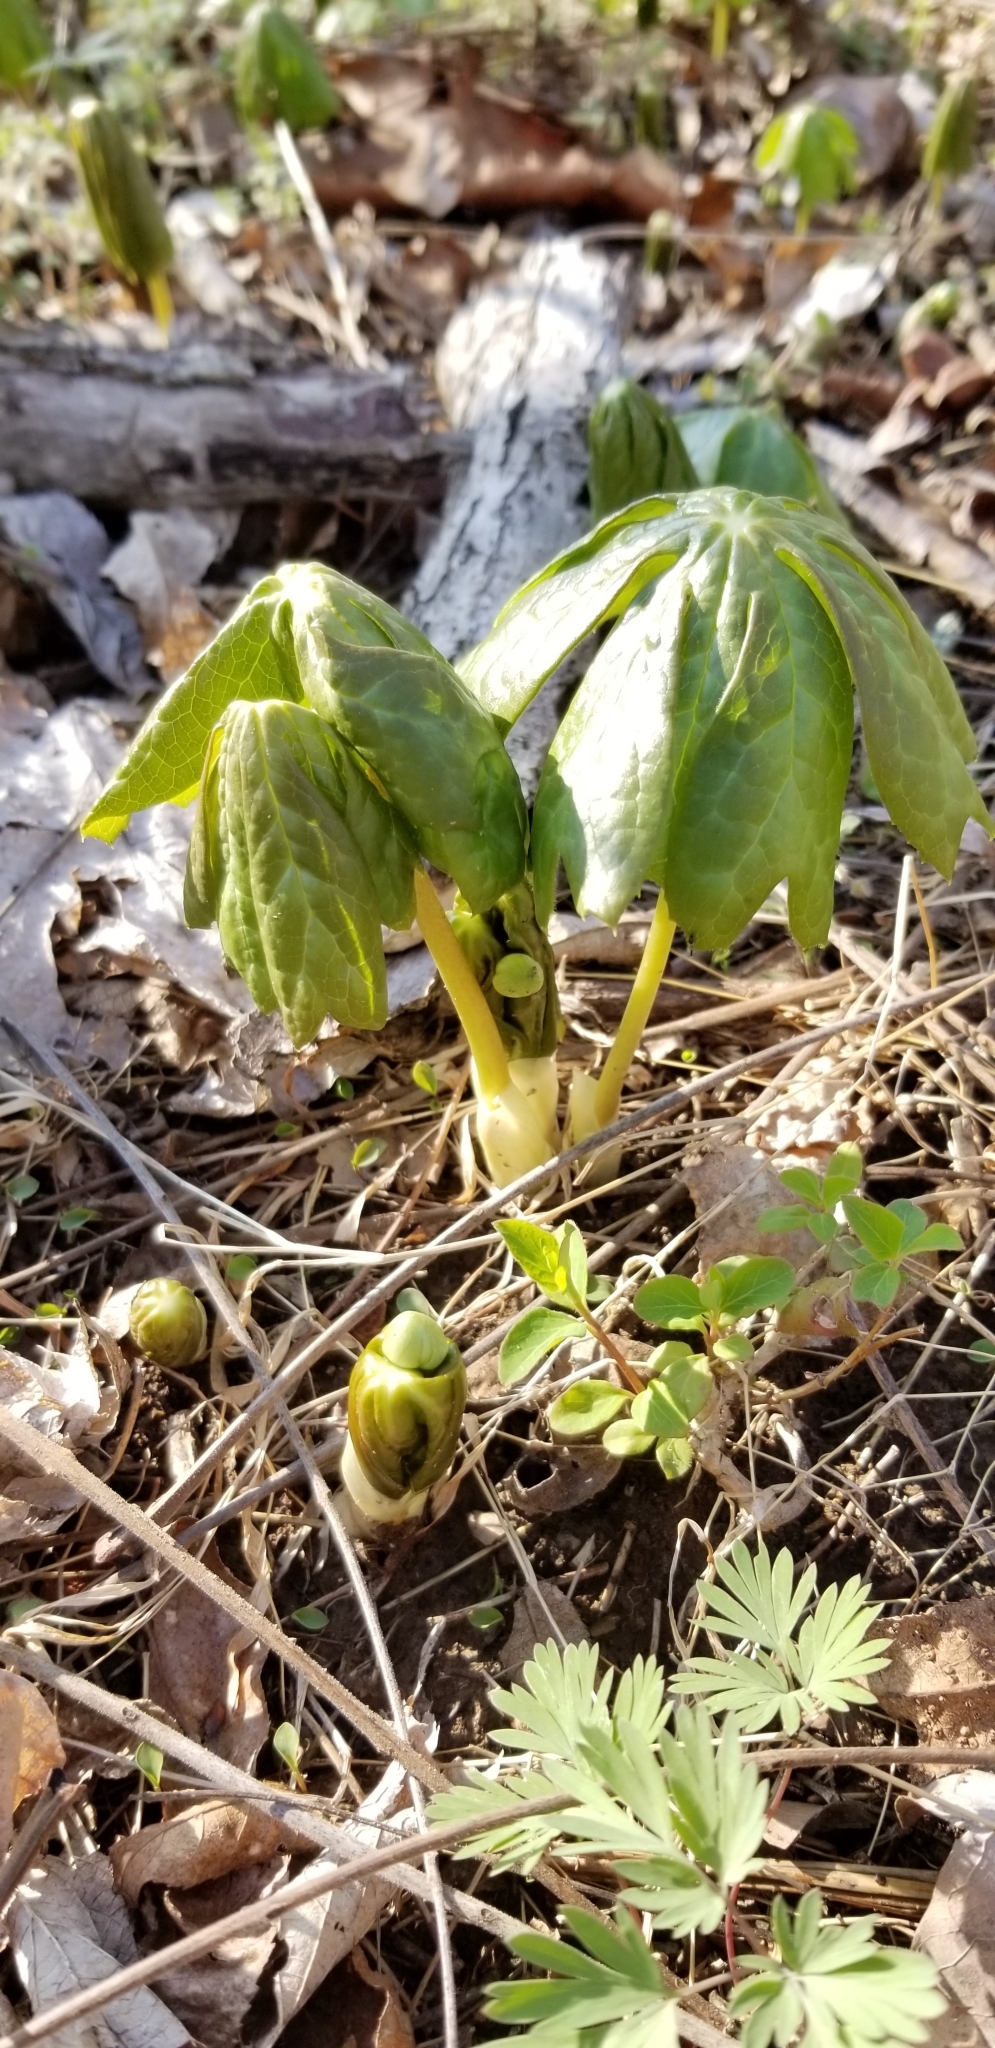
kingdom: Plantae
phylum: Tracheophyta
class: Magnoliopsida
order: Ranunculales
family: Berberidaceae
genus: Podophyllum
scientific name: Podophyllum peltatum
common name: Wild mandrake
